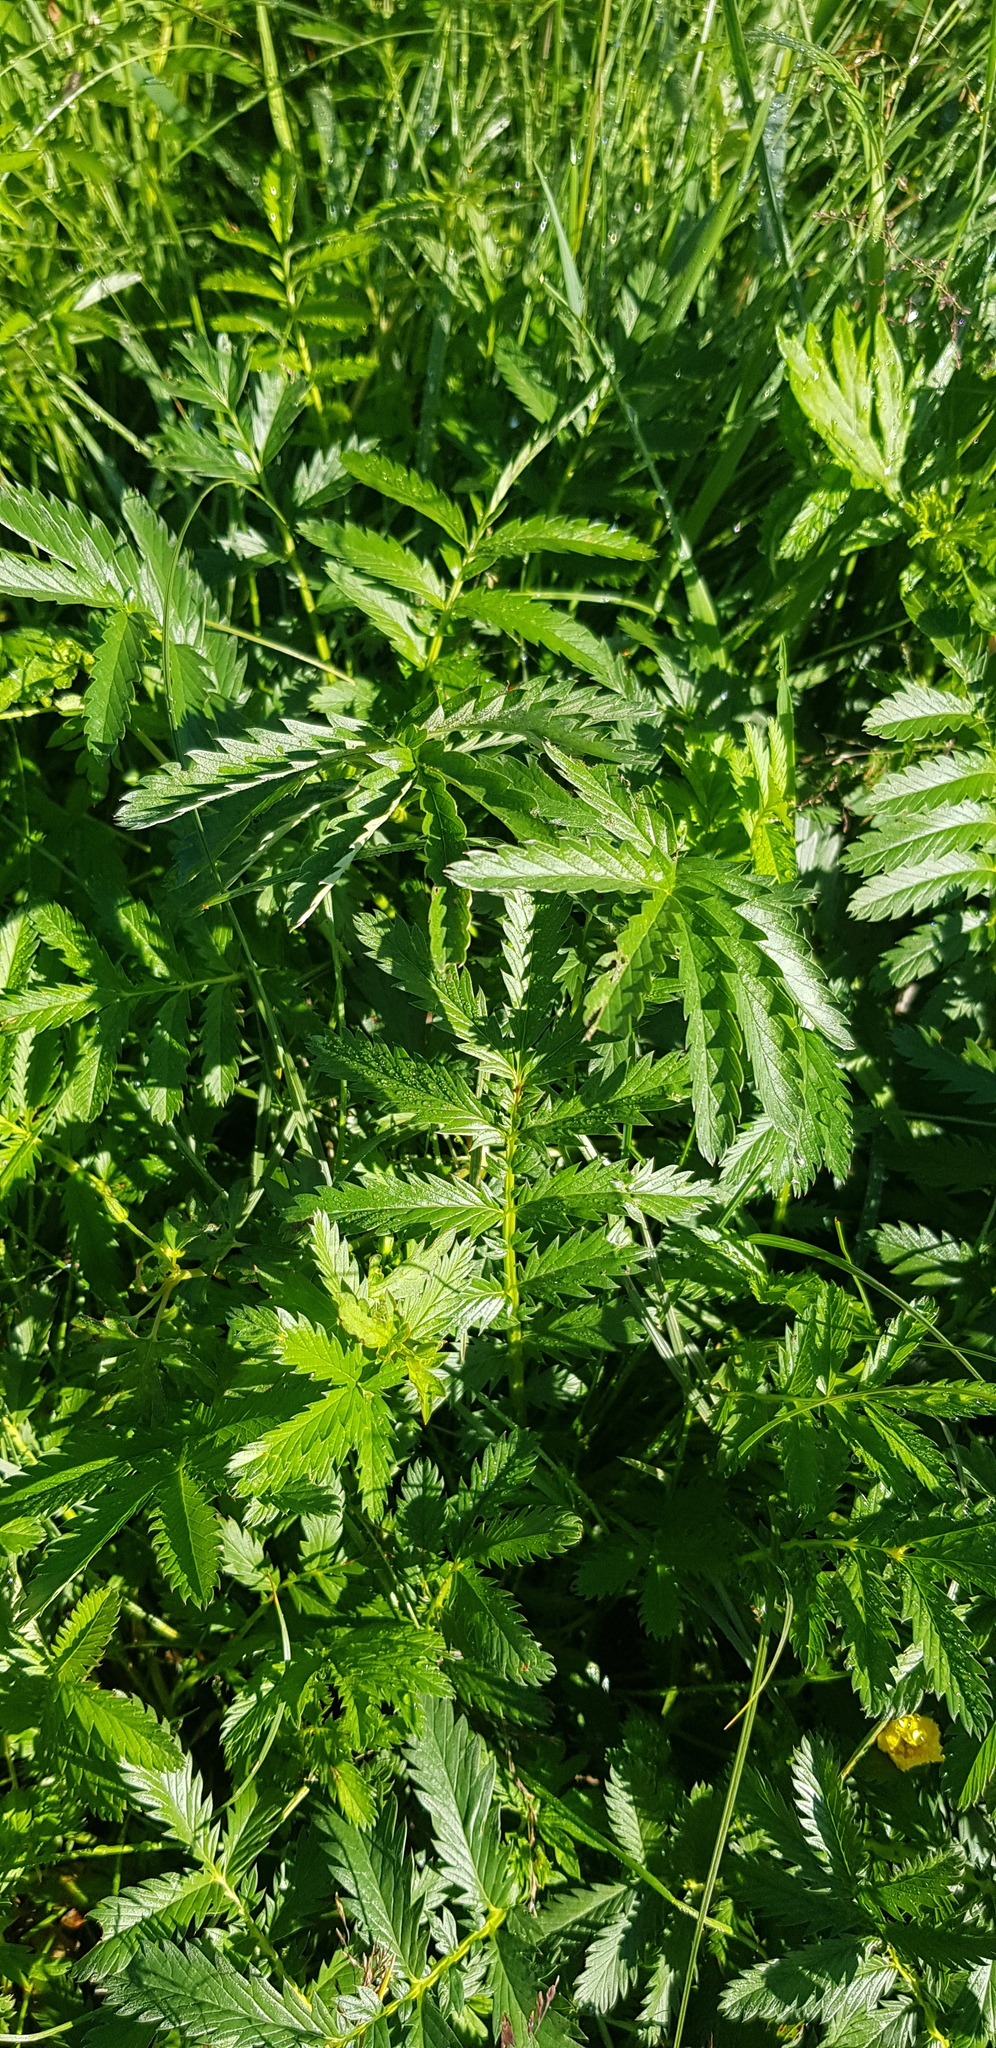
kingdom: Plantae
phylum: Tracheophyta
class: Magnoliopsida
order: Rosales
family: Rosaceae
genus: Argentina
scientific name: Argentina anserina
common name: Common silverweed
